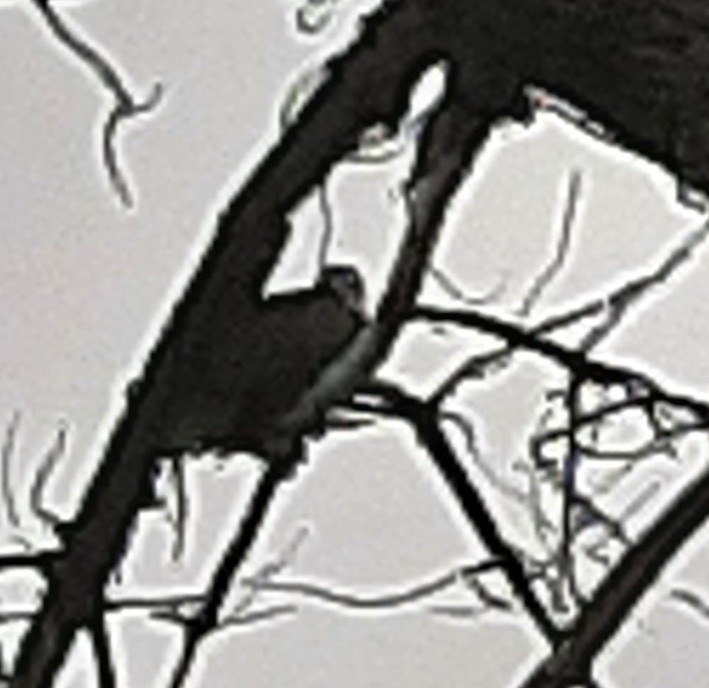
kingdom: Animalia
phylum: Chordata
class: Aves
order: Accipitriformes
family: Accipitridae
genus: Haliaeetus
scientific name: Haliaeetus leucocephalus
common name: Bald eagle
